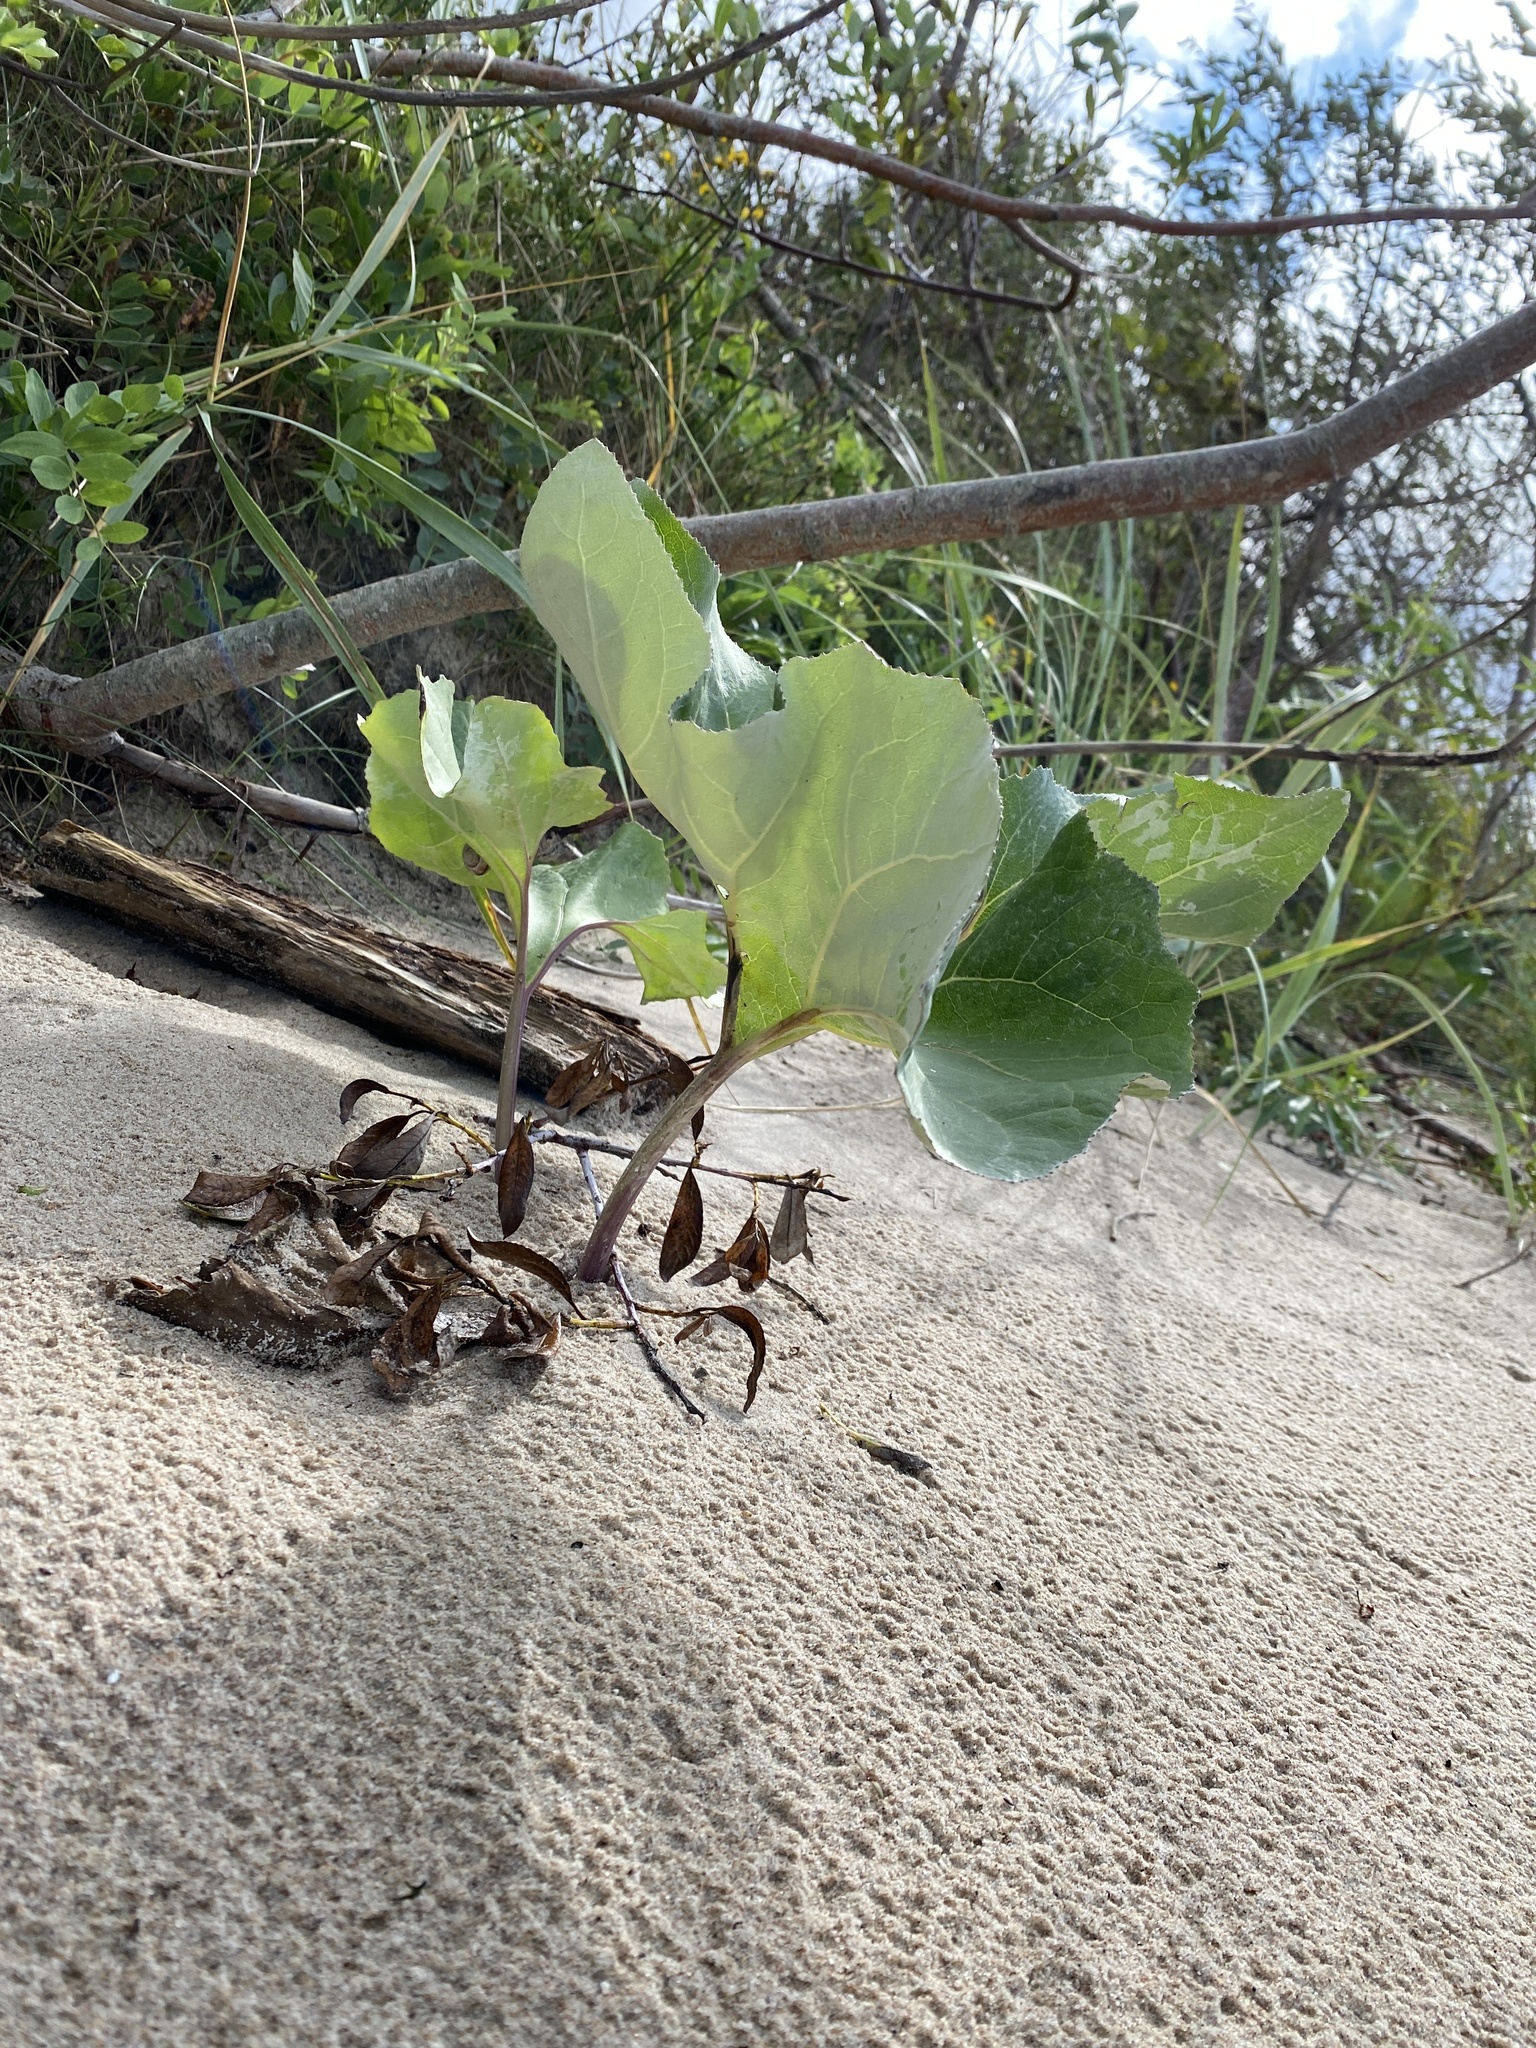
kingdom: Plantae
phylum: Tracheophyta
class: Magnoliopsida
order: Asterales
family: Asteraceae
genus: Petasites
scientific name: Petasites spurius
